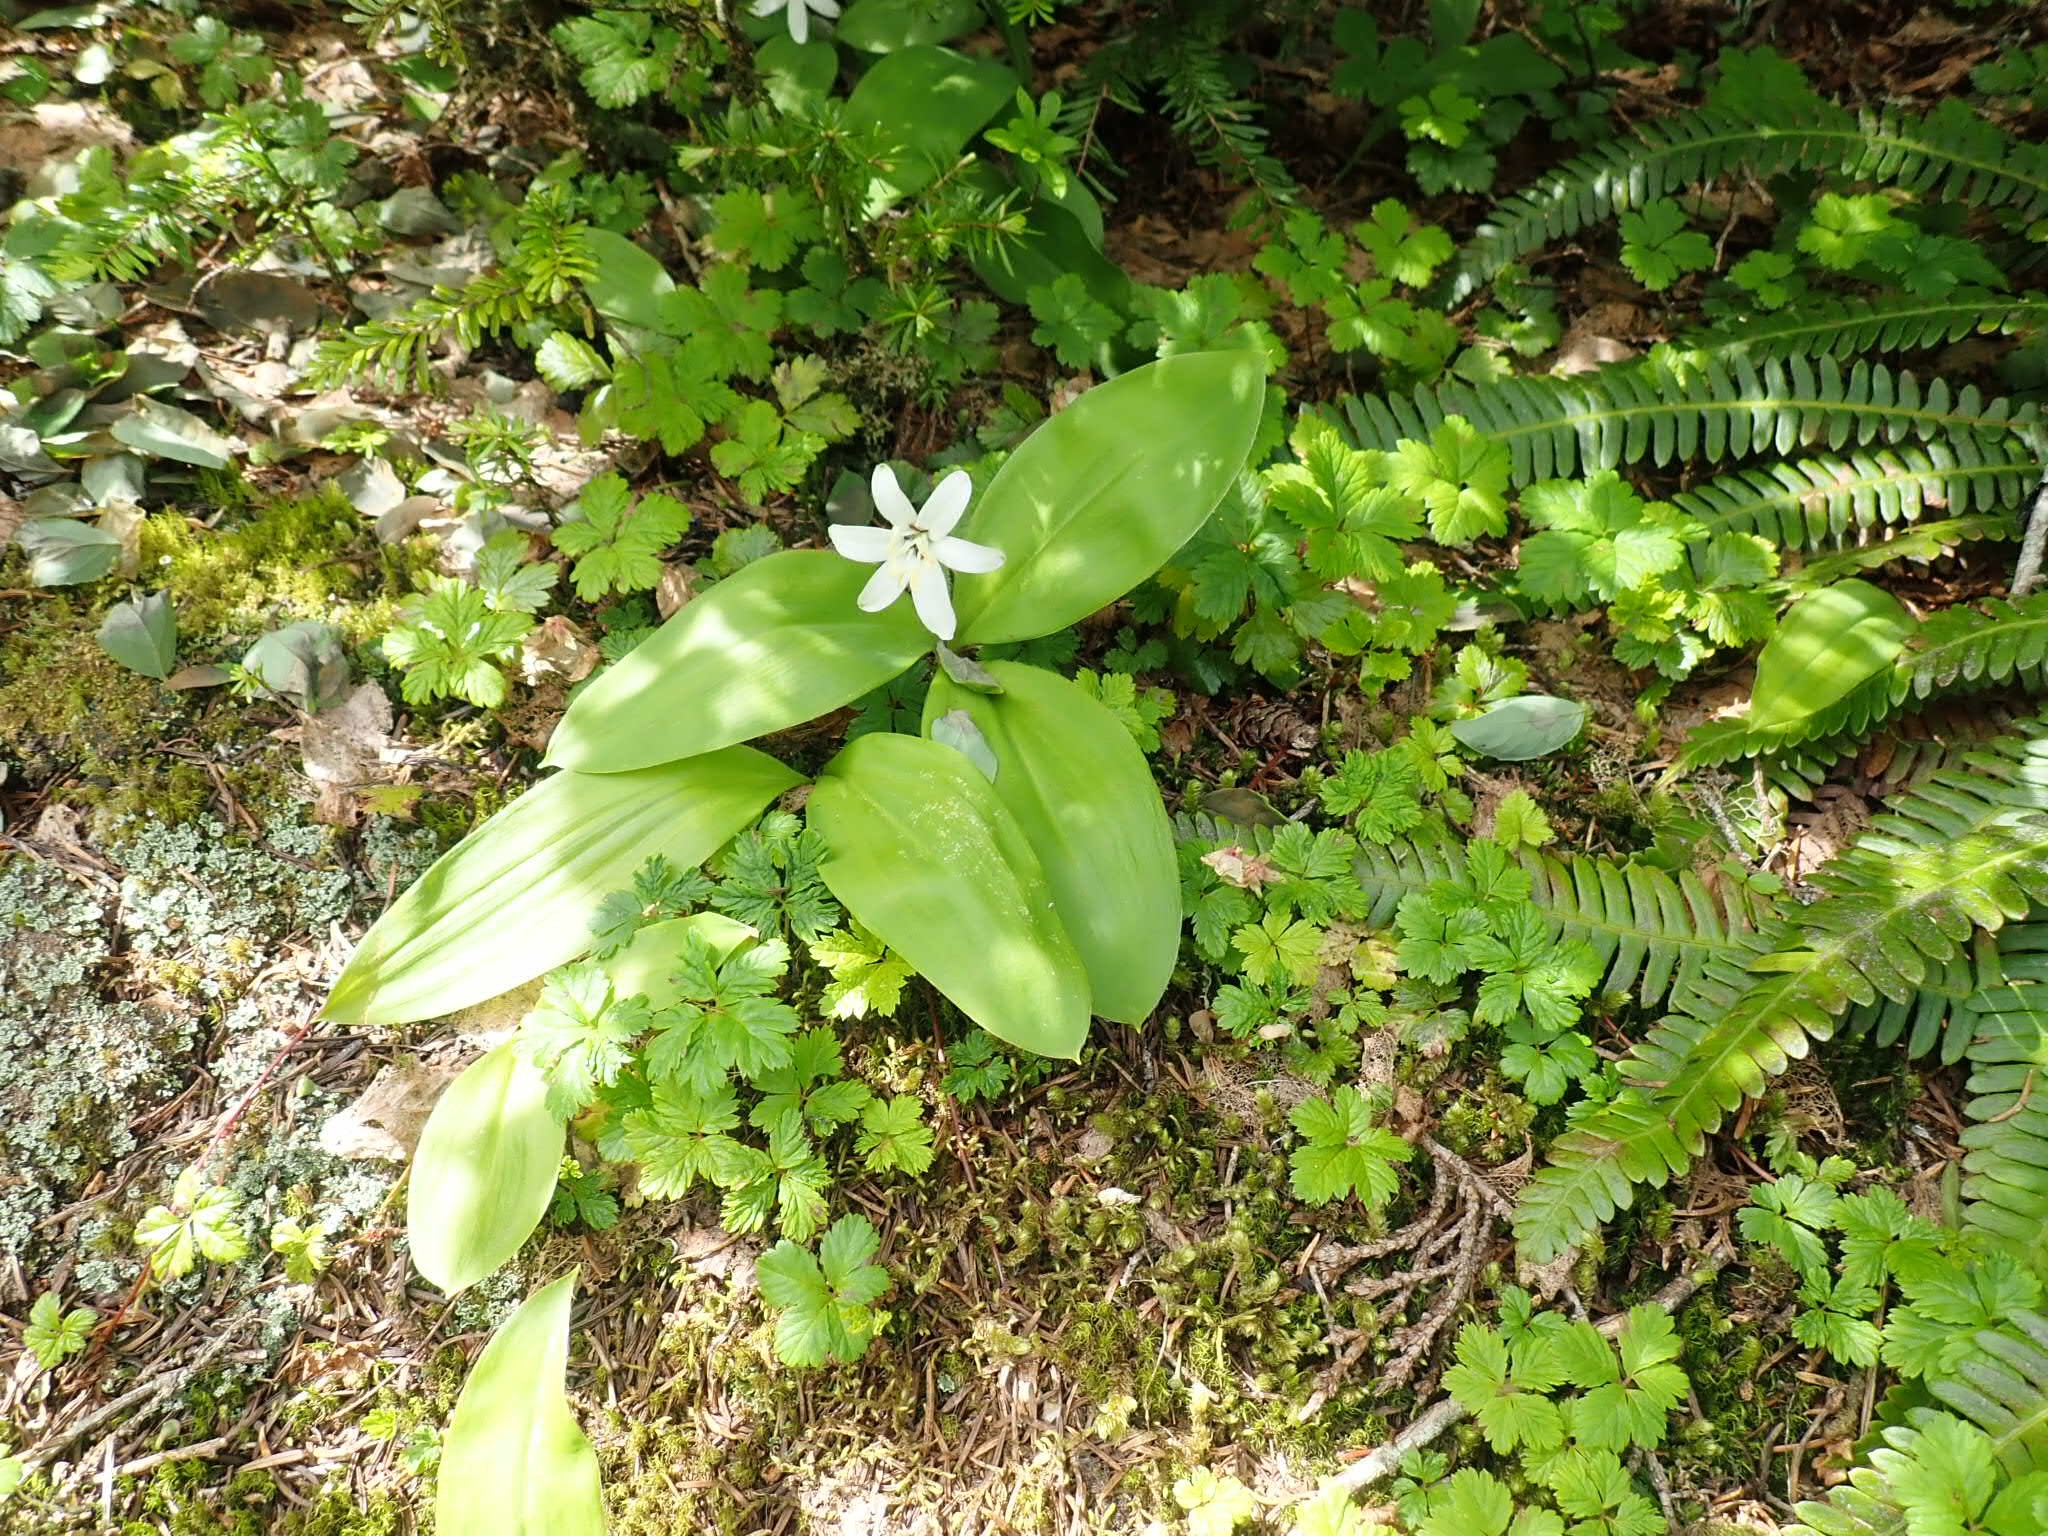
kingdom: Plantae
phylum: Tracheophyta
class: Liliopsida
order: Liliales
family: Liliaceae
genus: Clintonia
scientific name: Clintonia uniflora
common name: Queen's cup
